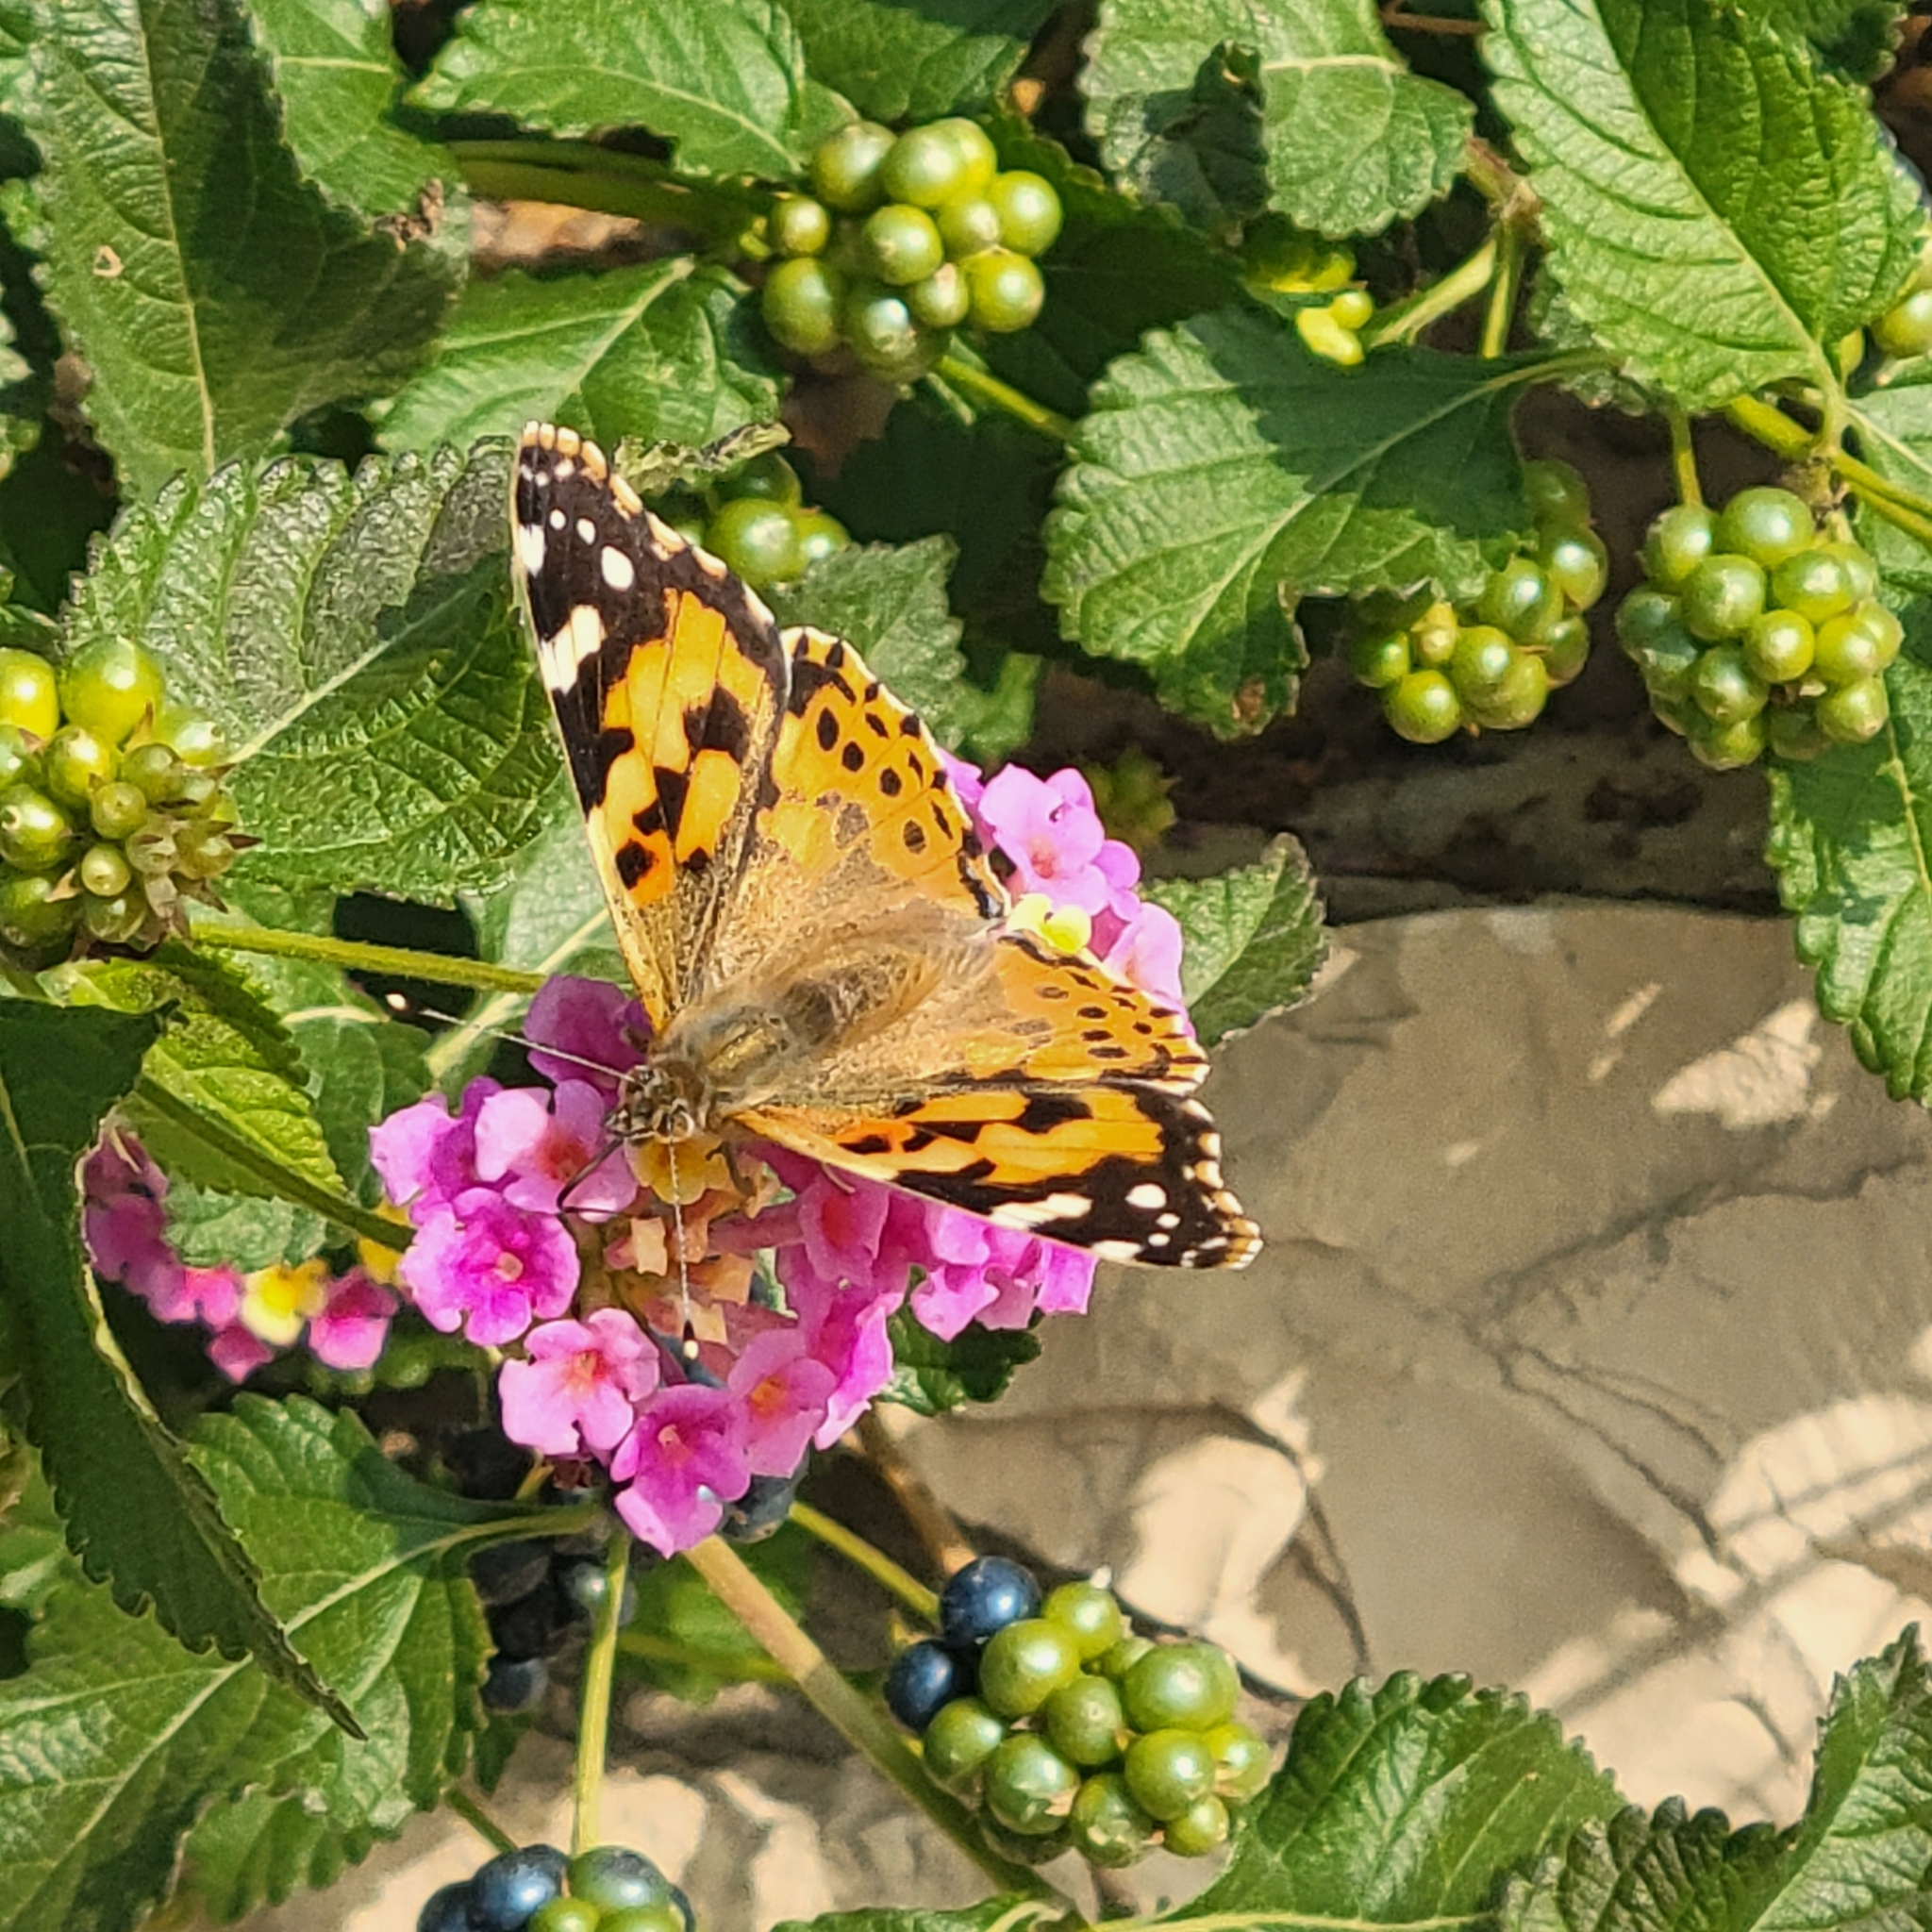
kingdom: Animalia
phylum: Arthropoda
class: Insecta
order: Lepidoptera
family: Nymphalidae
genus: Vanessa
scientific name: Vanessa cardui
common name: Painted lady
